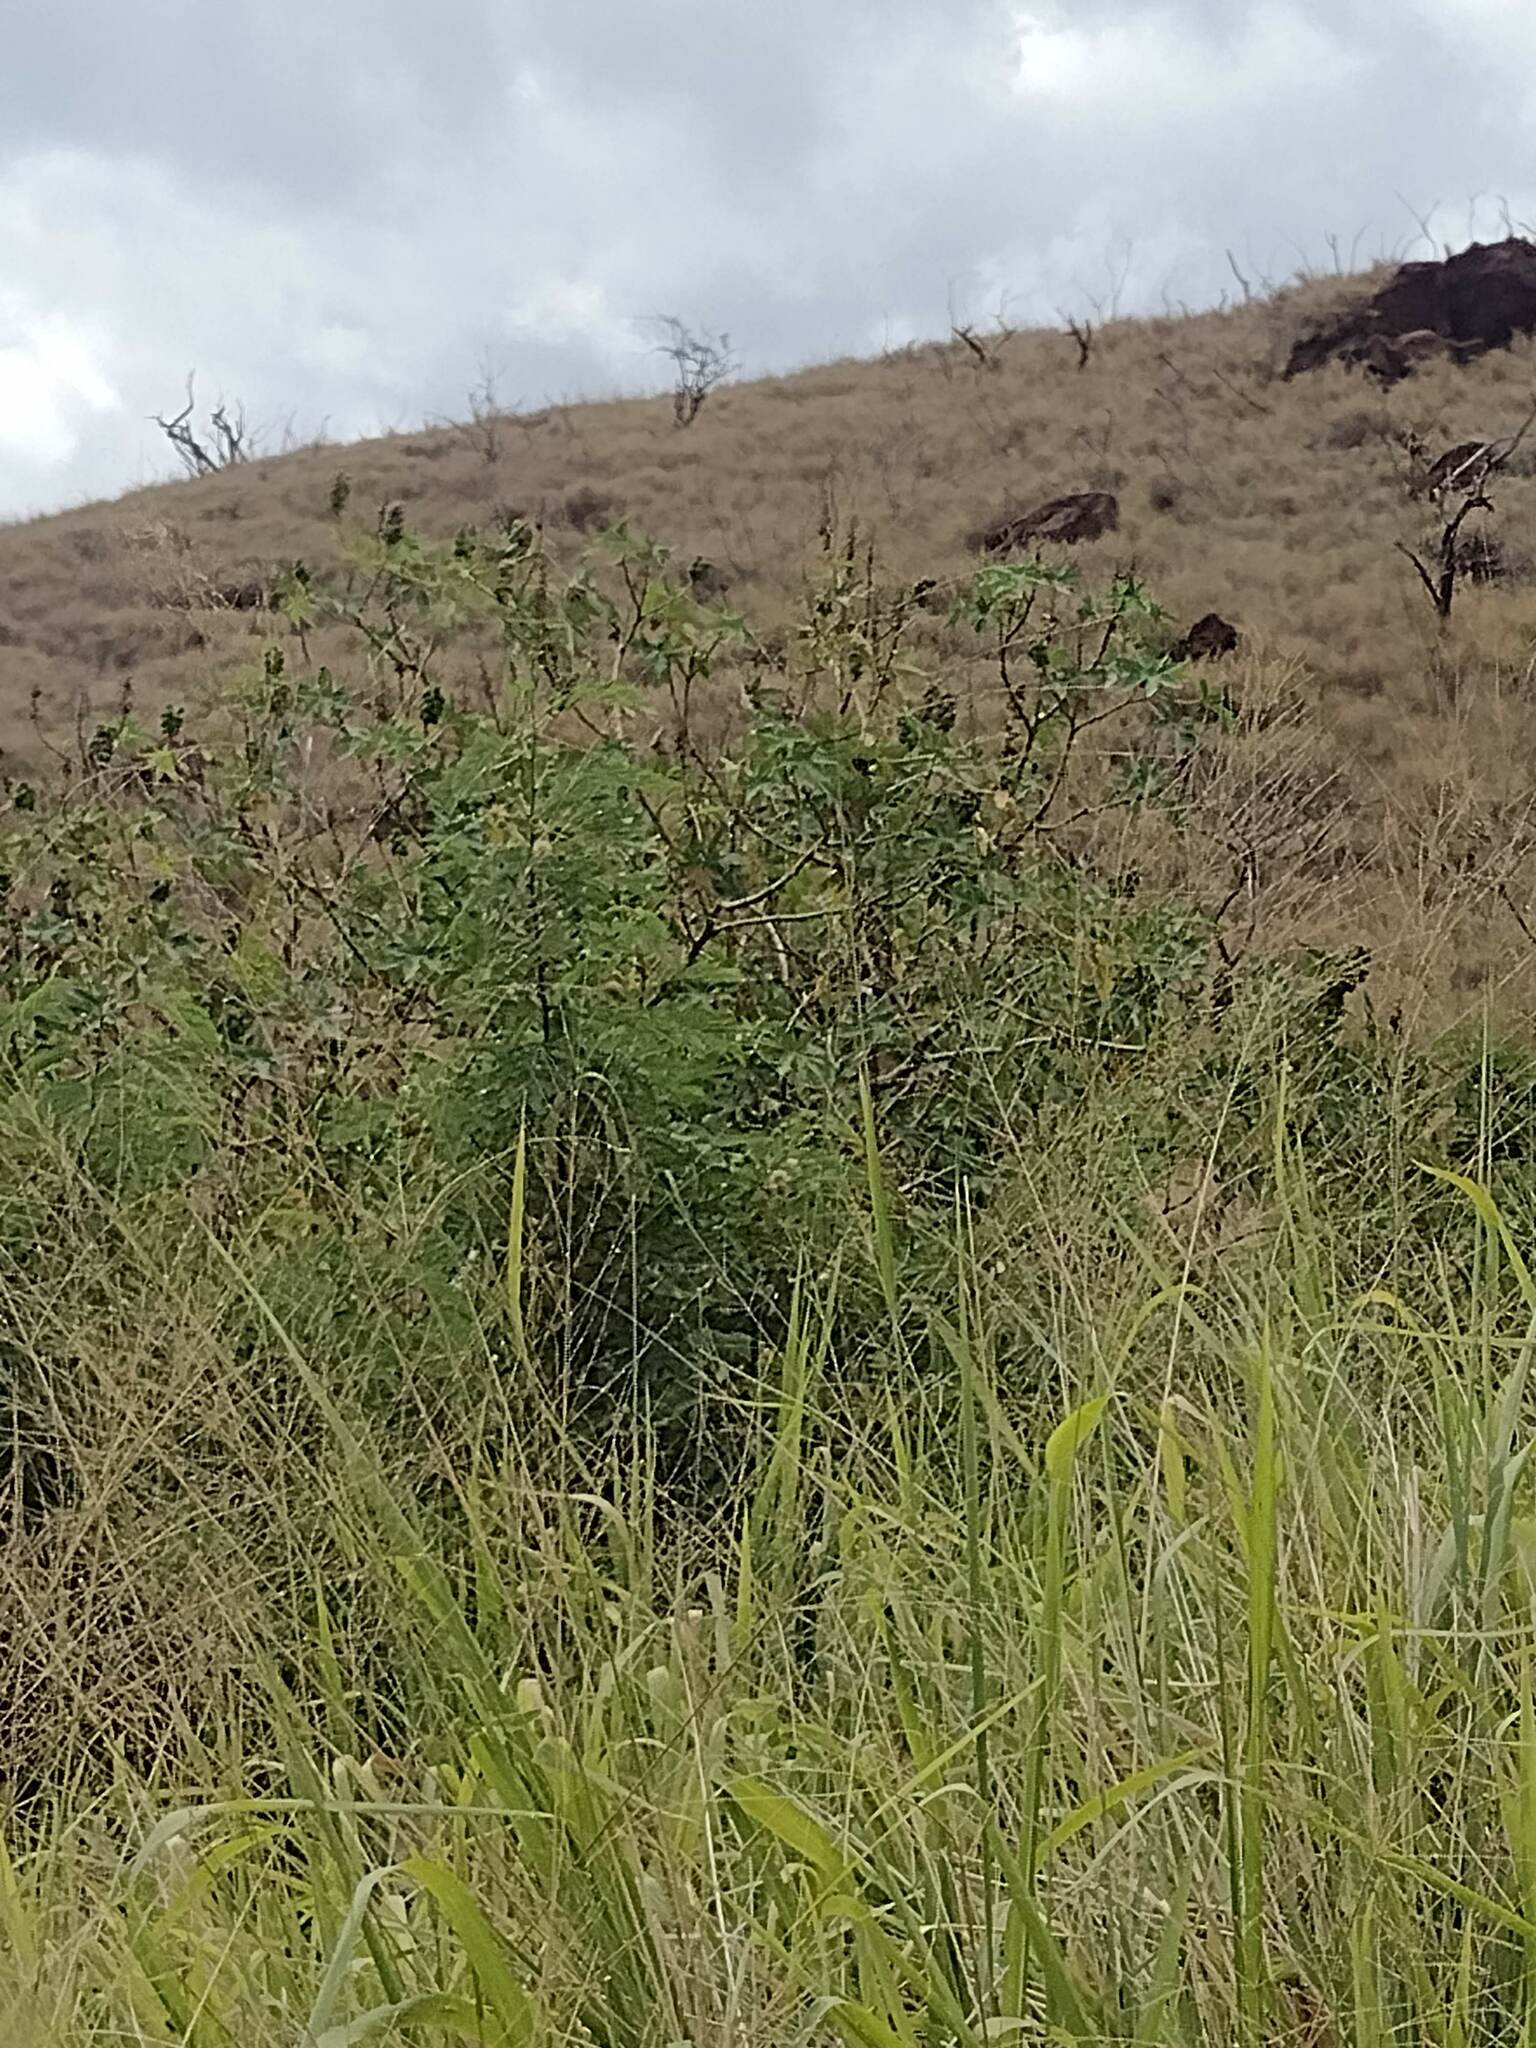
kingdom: Plantae
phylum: Tracheophyta
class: Magnoliopsida
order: Fabales
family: Fabaceae
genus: Leucaena
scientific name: Leucaena leucocephala
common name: White leadtree
